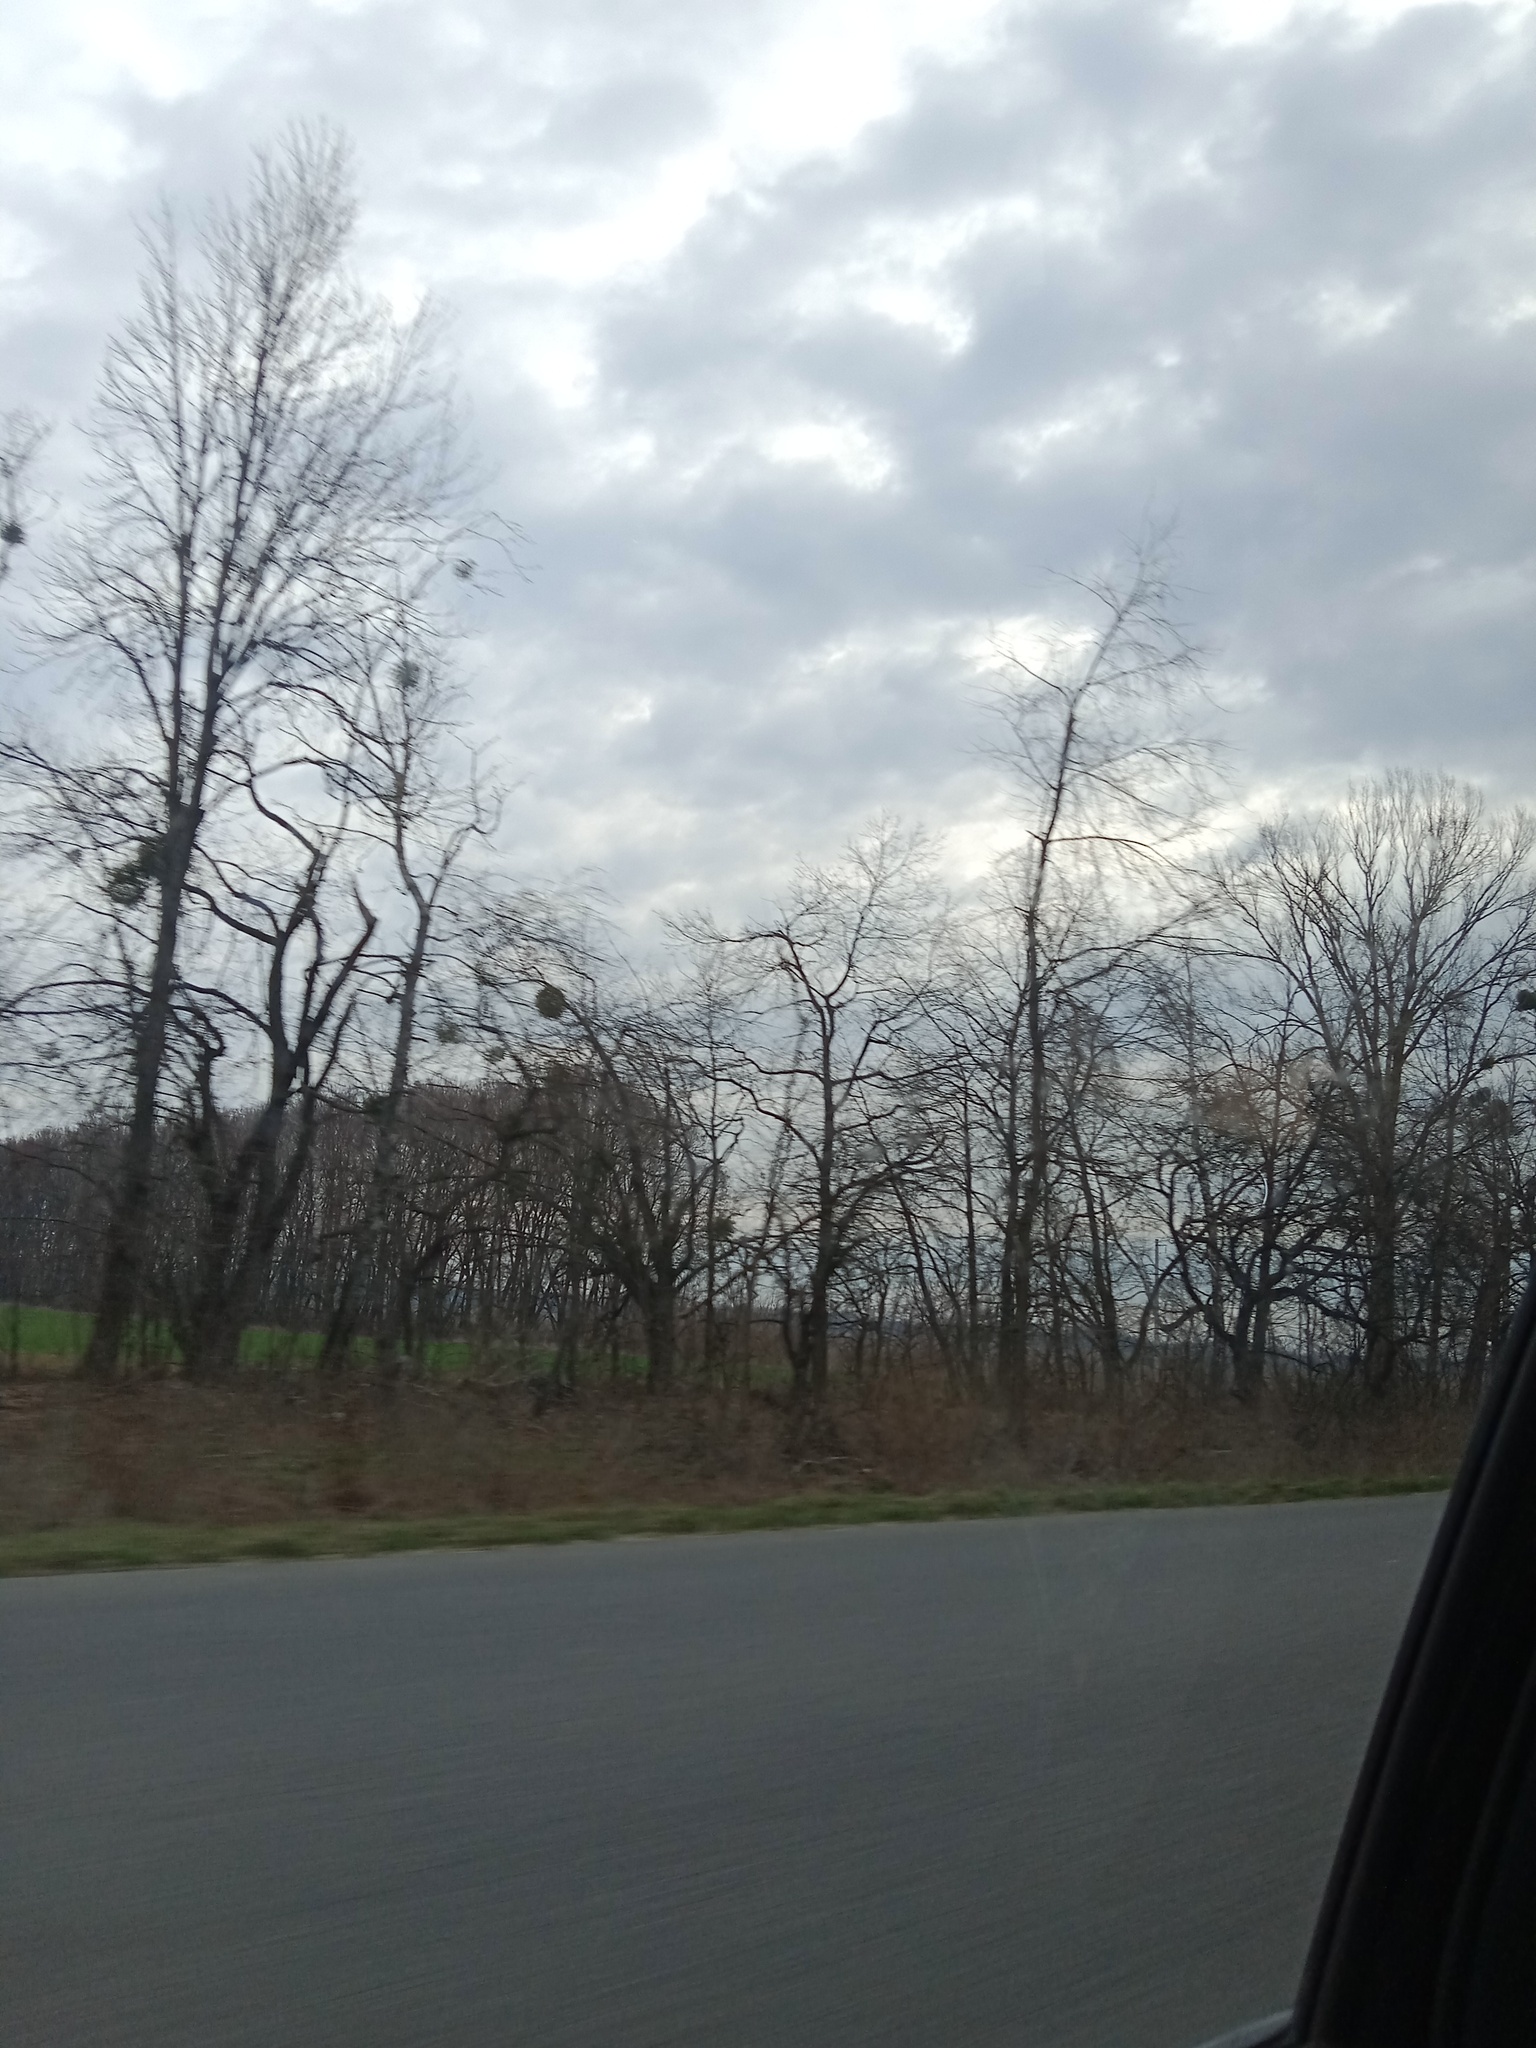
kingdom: Plantae
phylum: Tracheophyta
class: Magnoliopsida
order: Santalales
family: Viscaceae
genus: Viscum
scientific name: Viscum album
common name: Mistletoe
